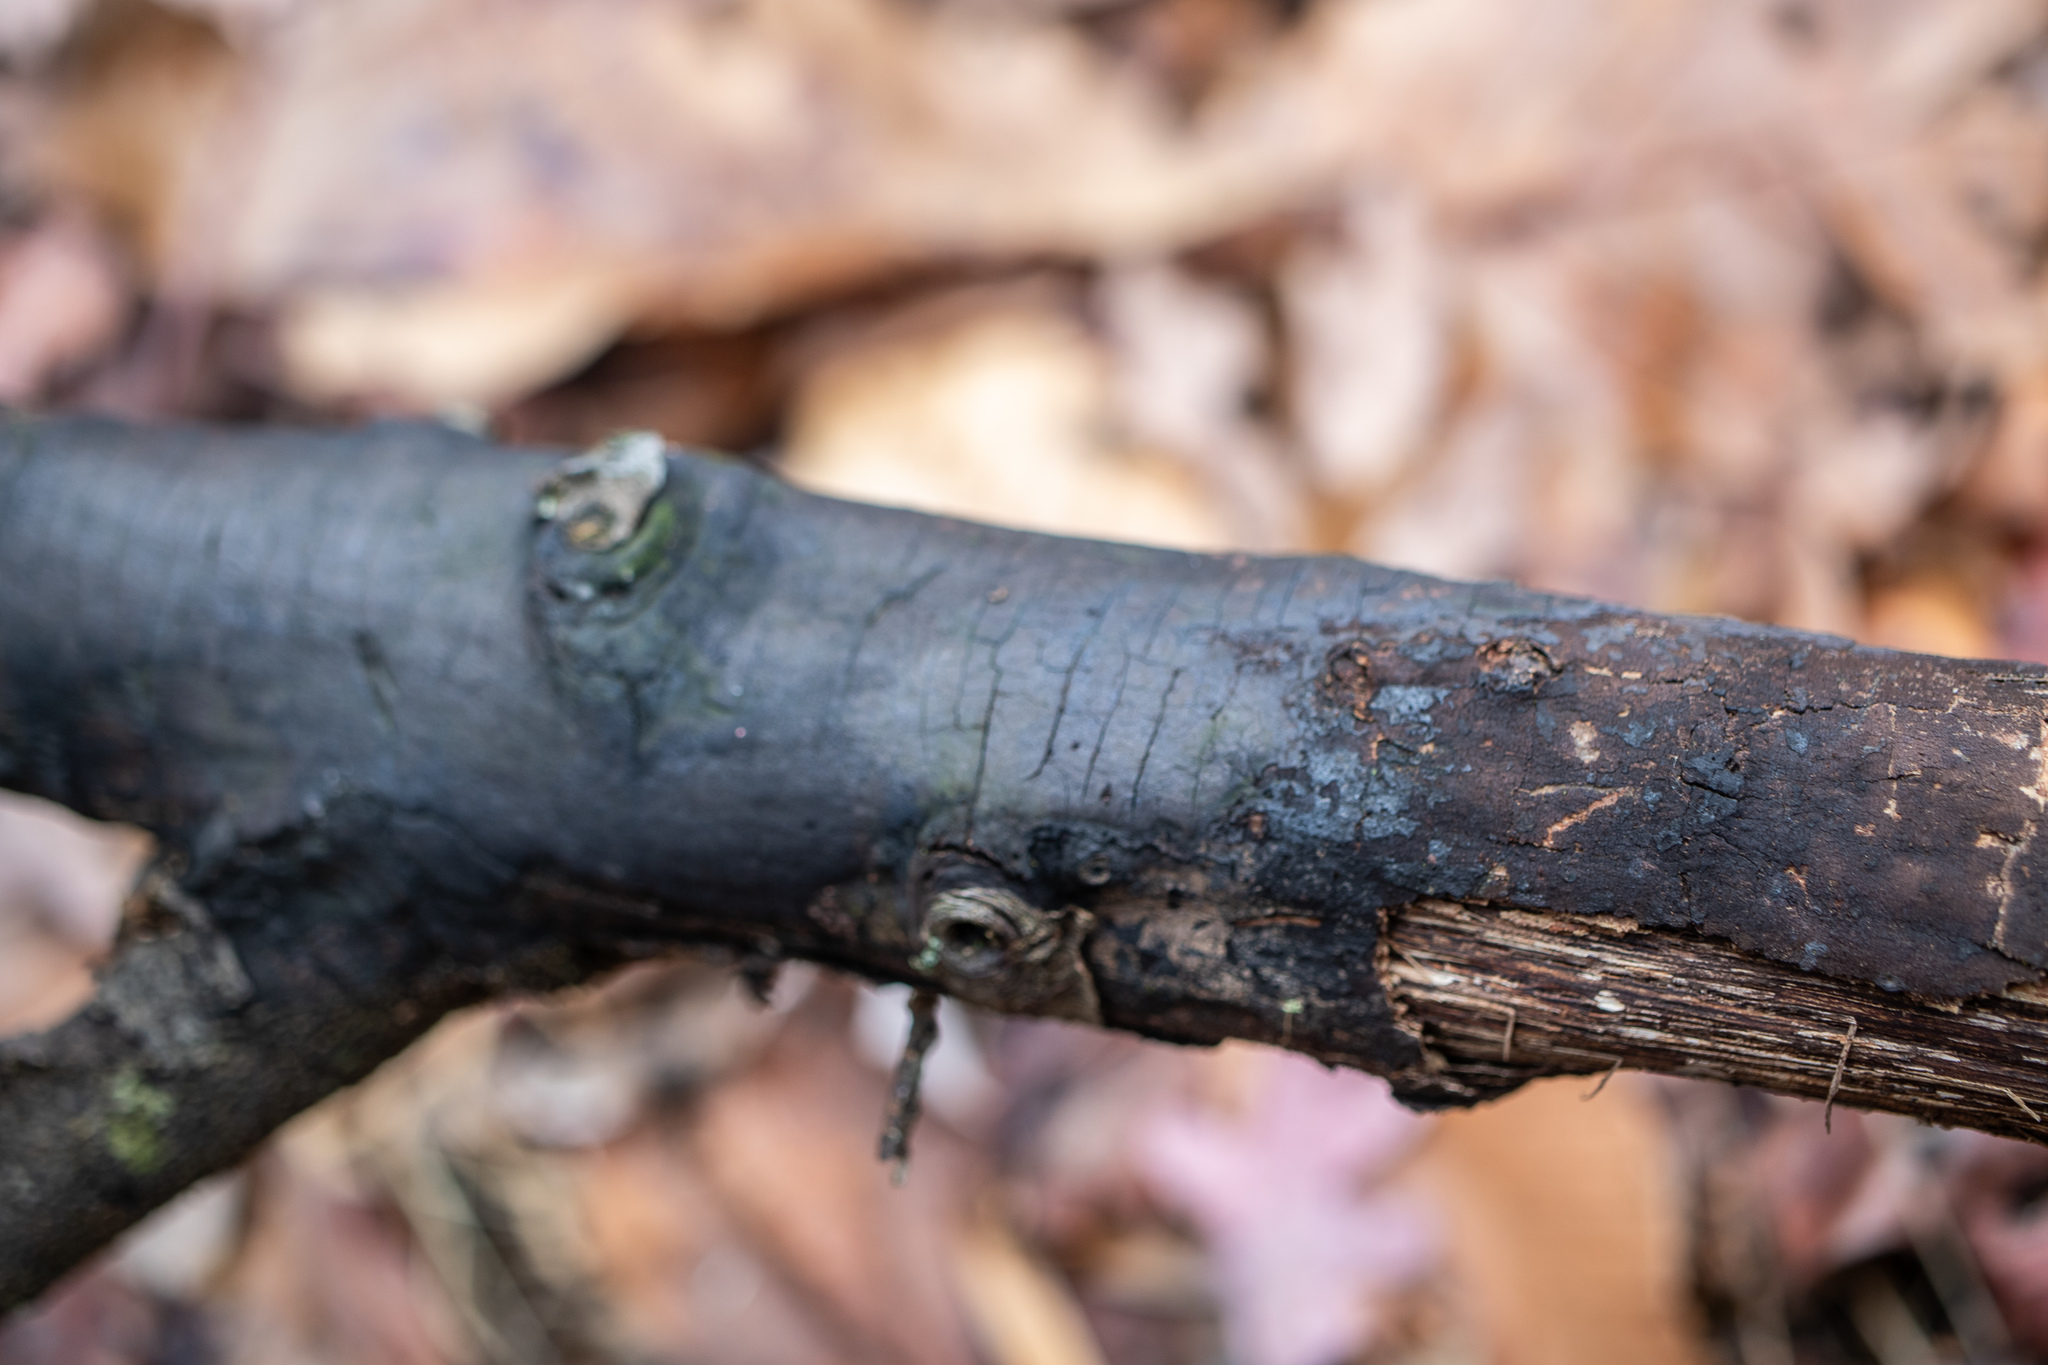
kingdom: Fungi
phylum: Ascomycota
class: Sordariomycetes
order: Xylariales
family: Diatrypaceae
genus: Diatrype
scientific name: Diatrype stigma
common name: Common tarcrust
